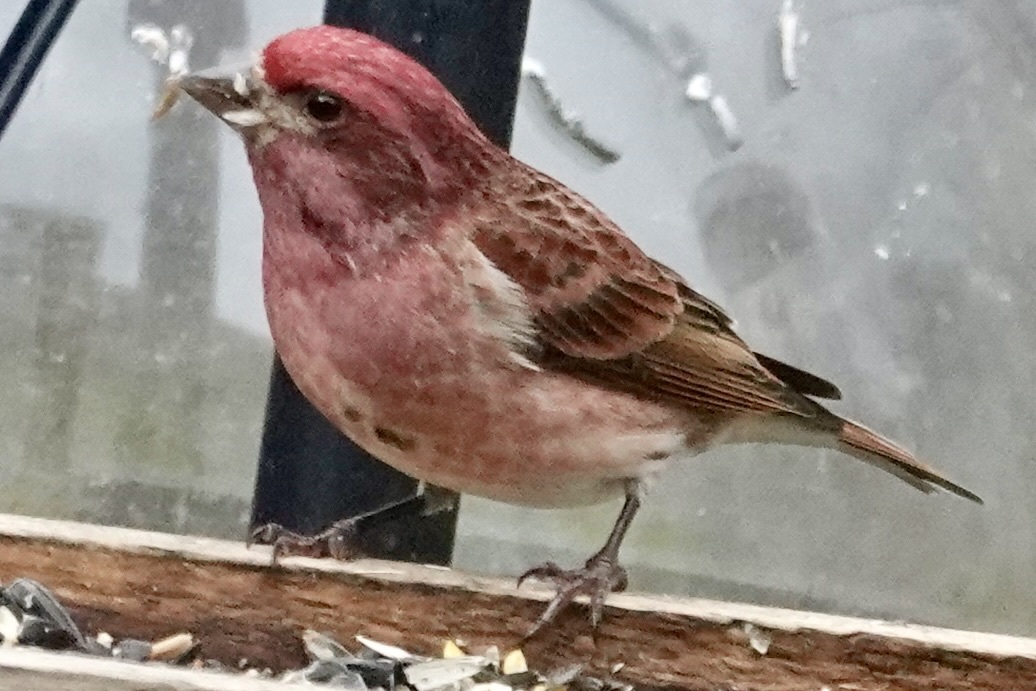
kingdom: Animalia
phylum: Chordata
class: Aves
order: Passeriformes
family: Fringillidae
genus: Haemorhous
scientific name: Haemorhous purpureus
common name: Purple finch
